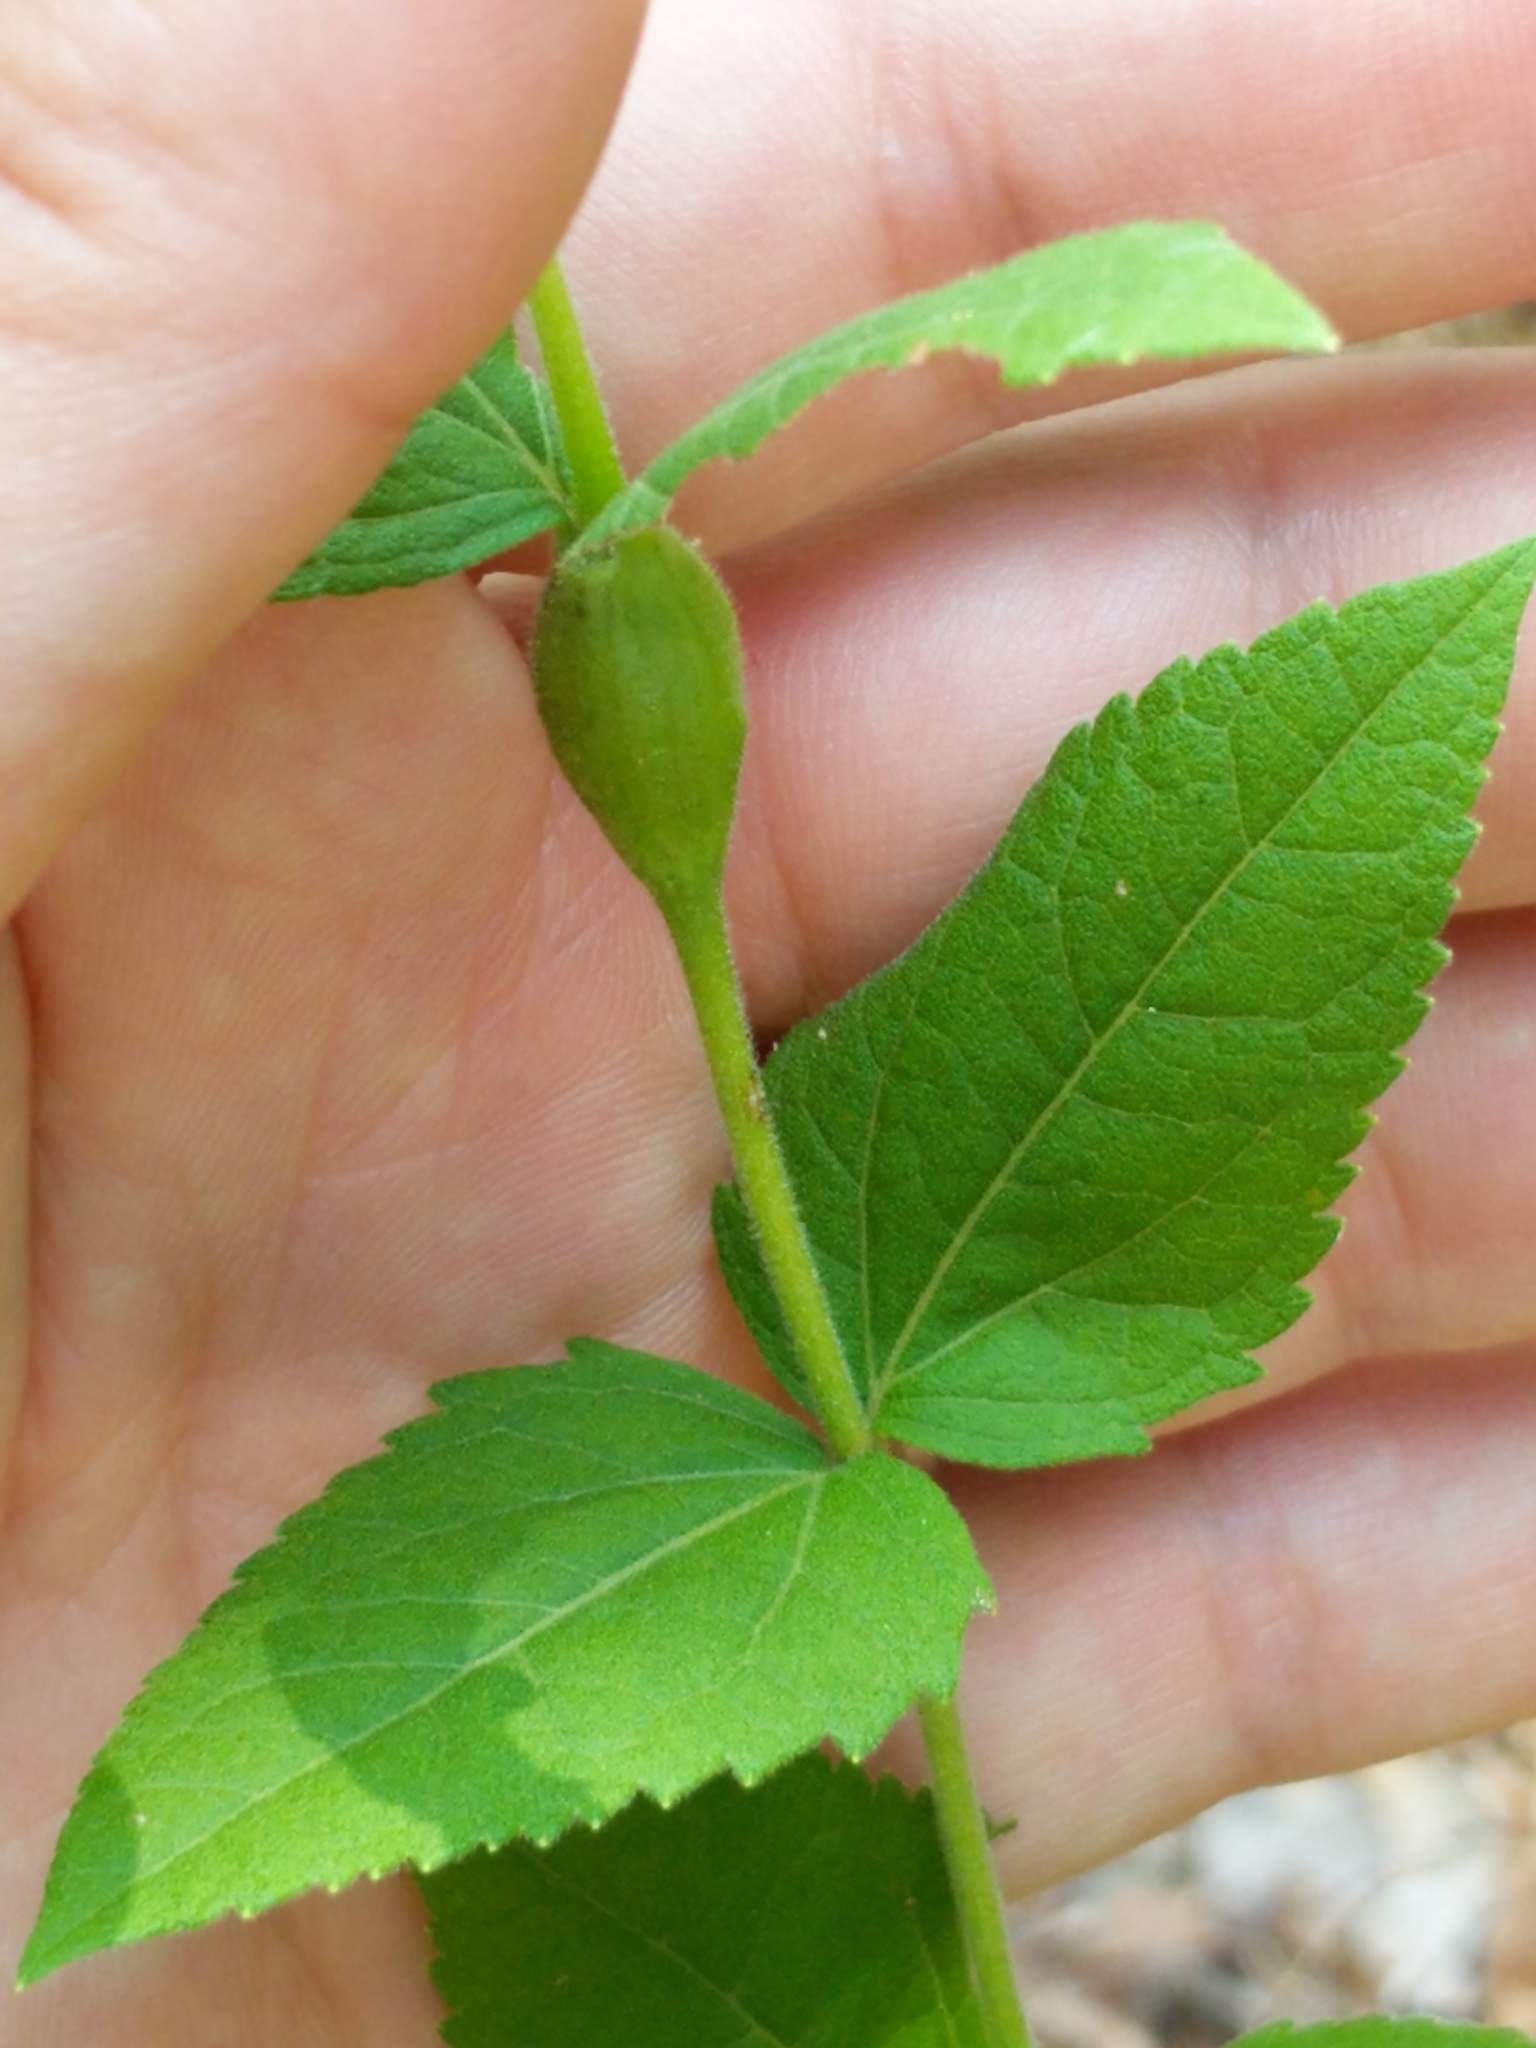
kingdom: Plantae
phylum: Tracheophyta
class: Magnoliopsida
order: Asterales
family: Asteraceae
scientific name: Asteraceae
